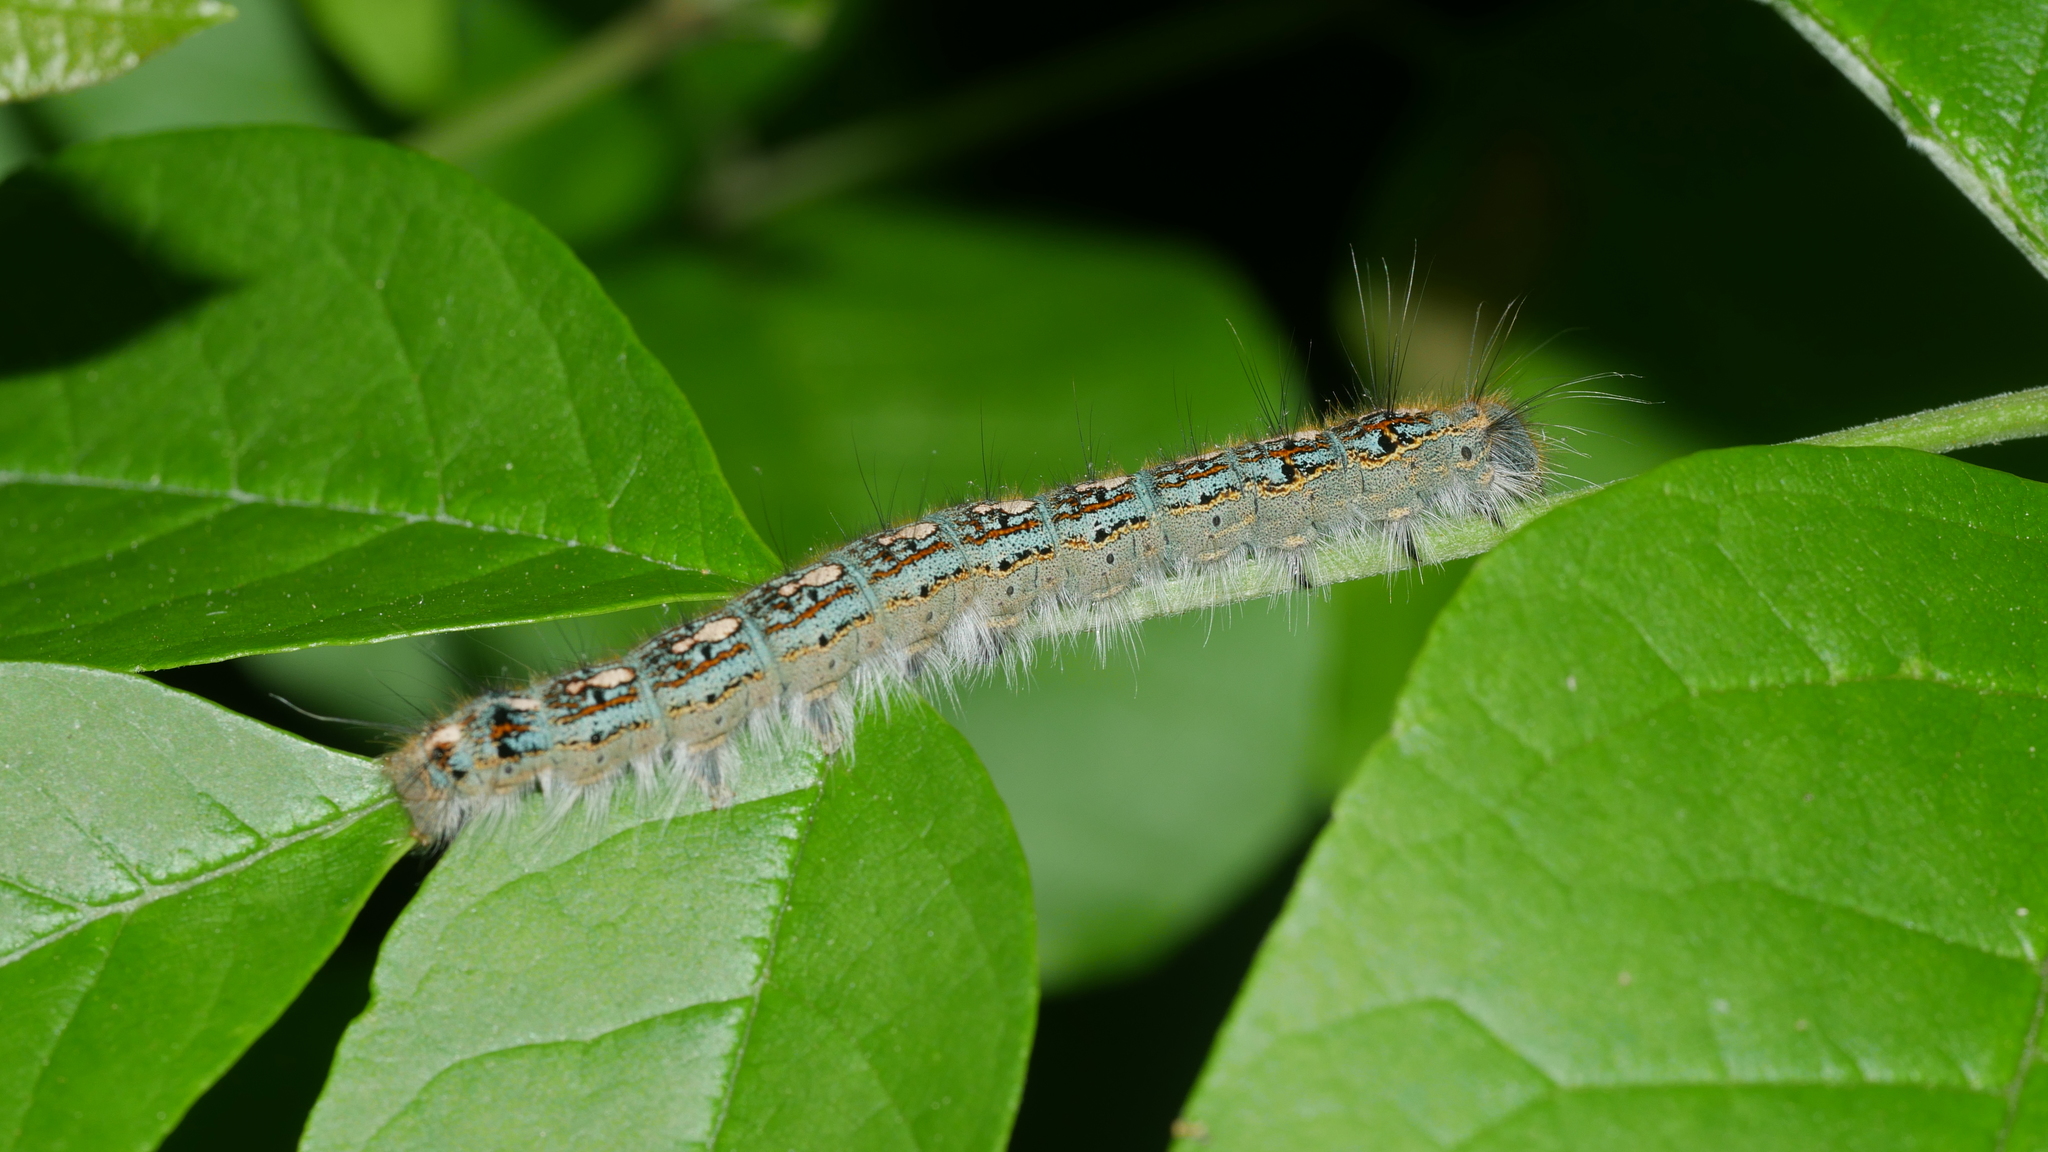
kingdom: Animalia
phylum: Arthropoda
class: Insecta
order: Lepidoptera
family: Lasiocampidae
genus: Malacosoma
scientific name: Malacosoma disstria
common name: Forest tent caterpillar
